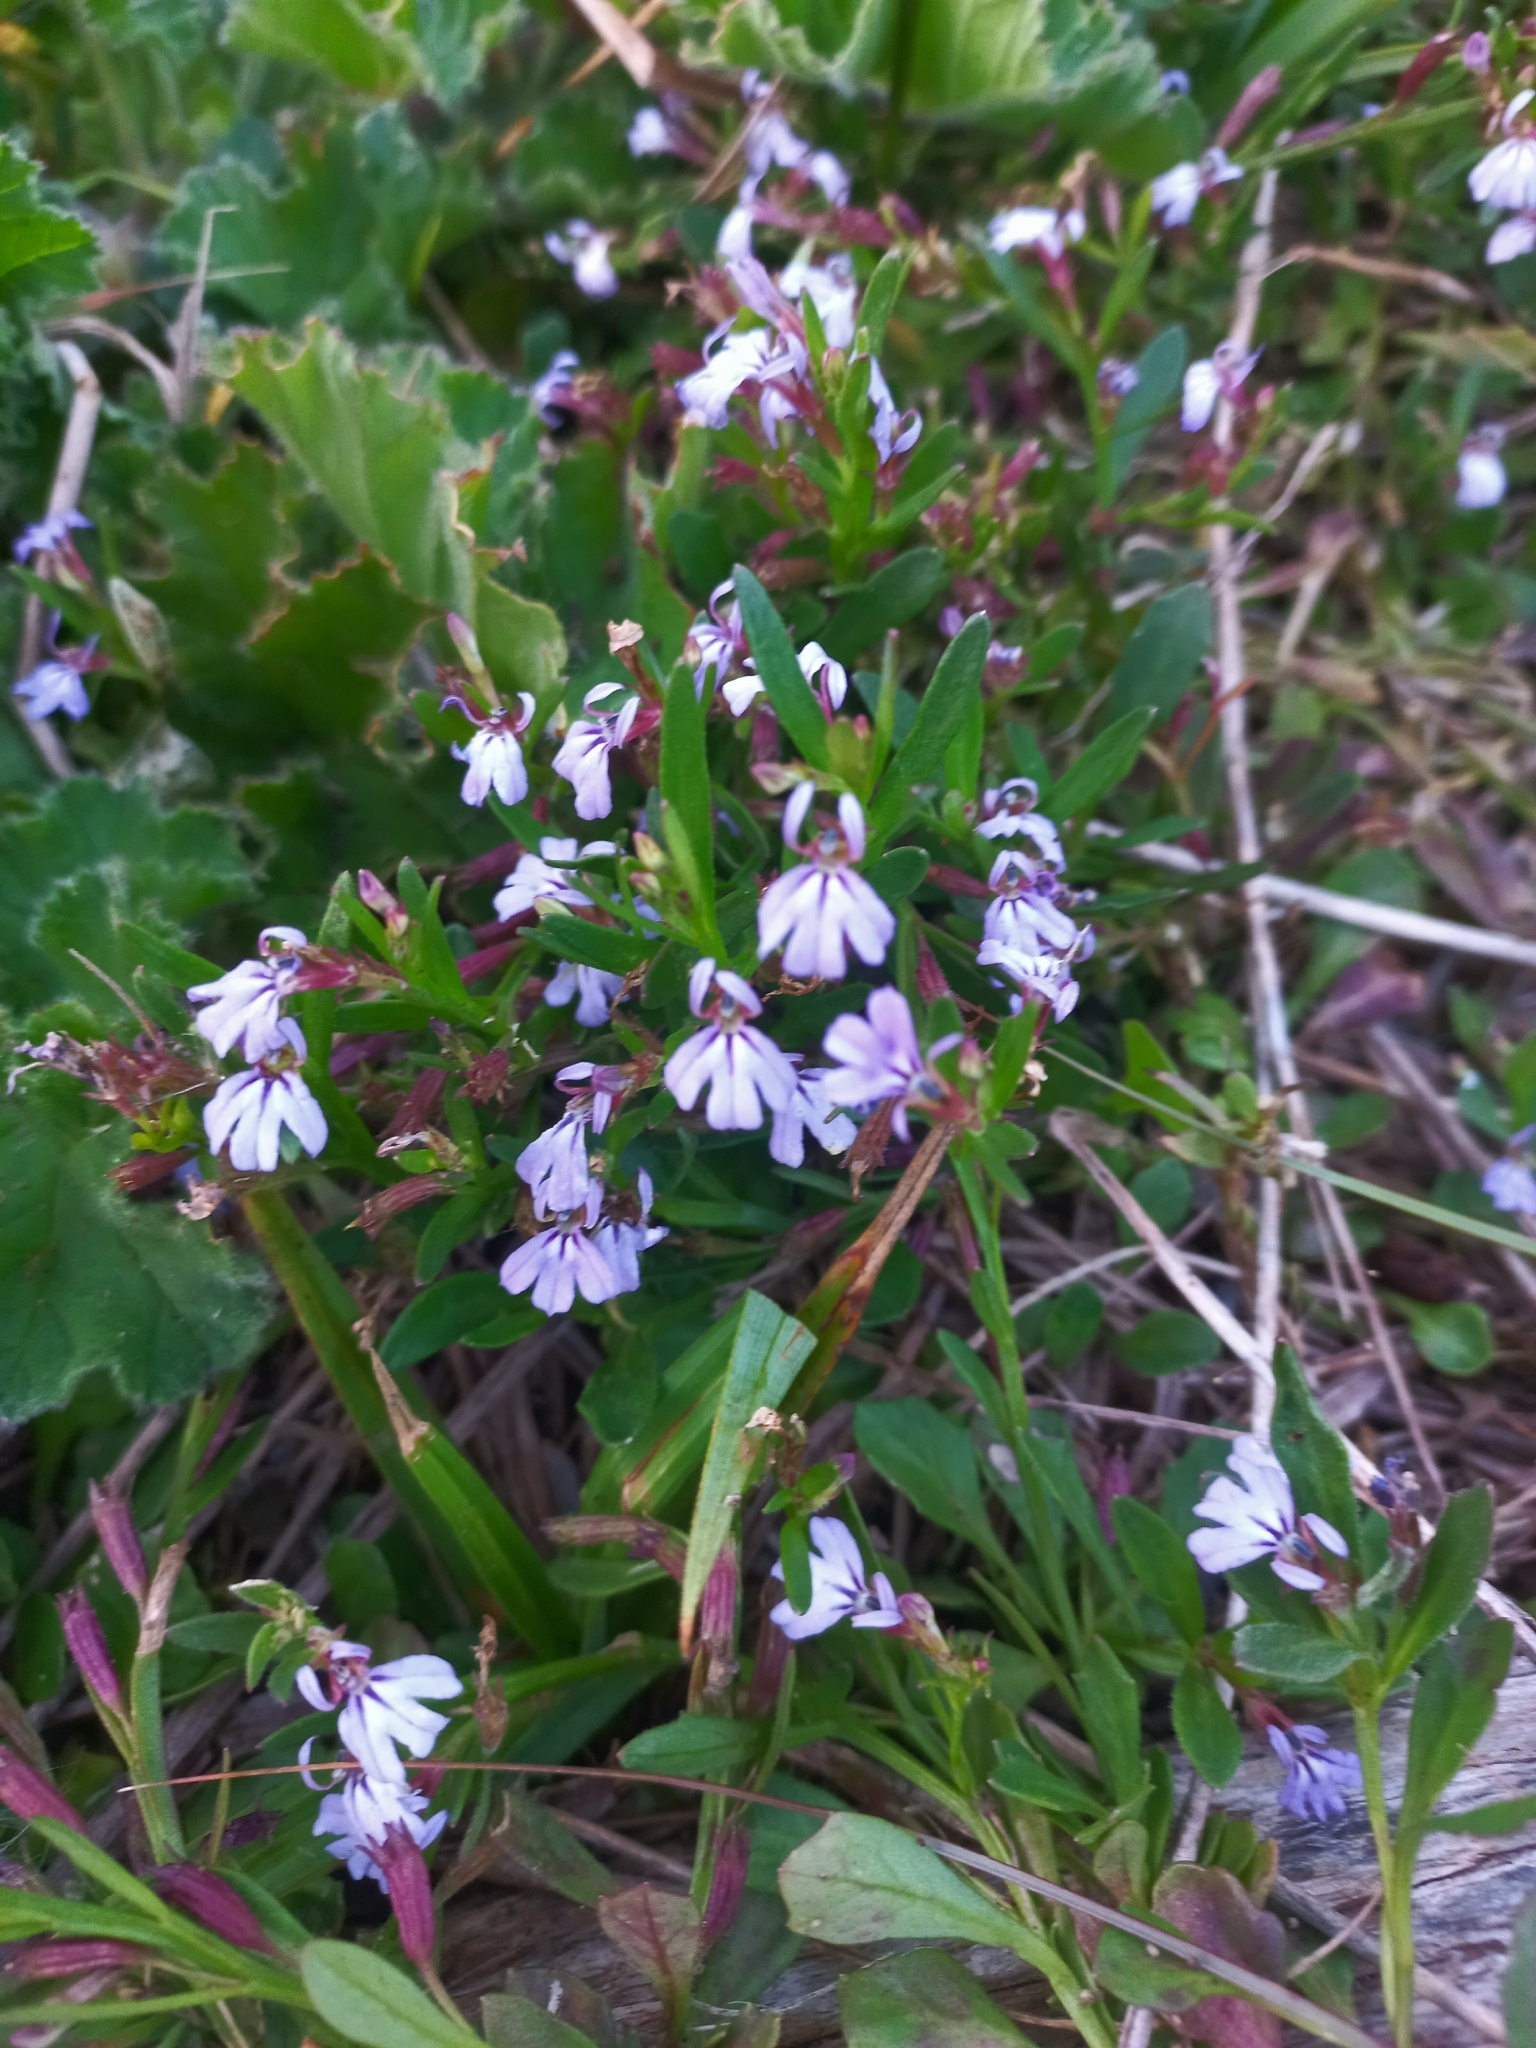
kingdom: Plantae
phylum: Tracheophyta
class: Magnoliopsida
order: Asterales
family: Campanulaceae
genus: Lobelia
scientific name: Lobelia anceps
